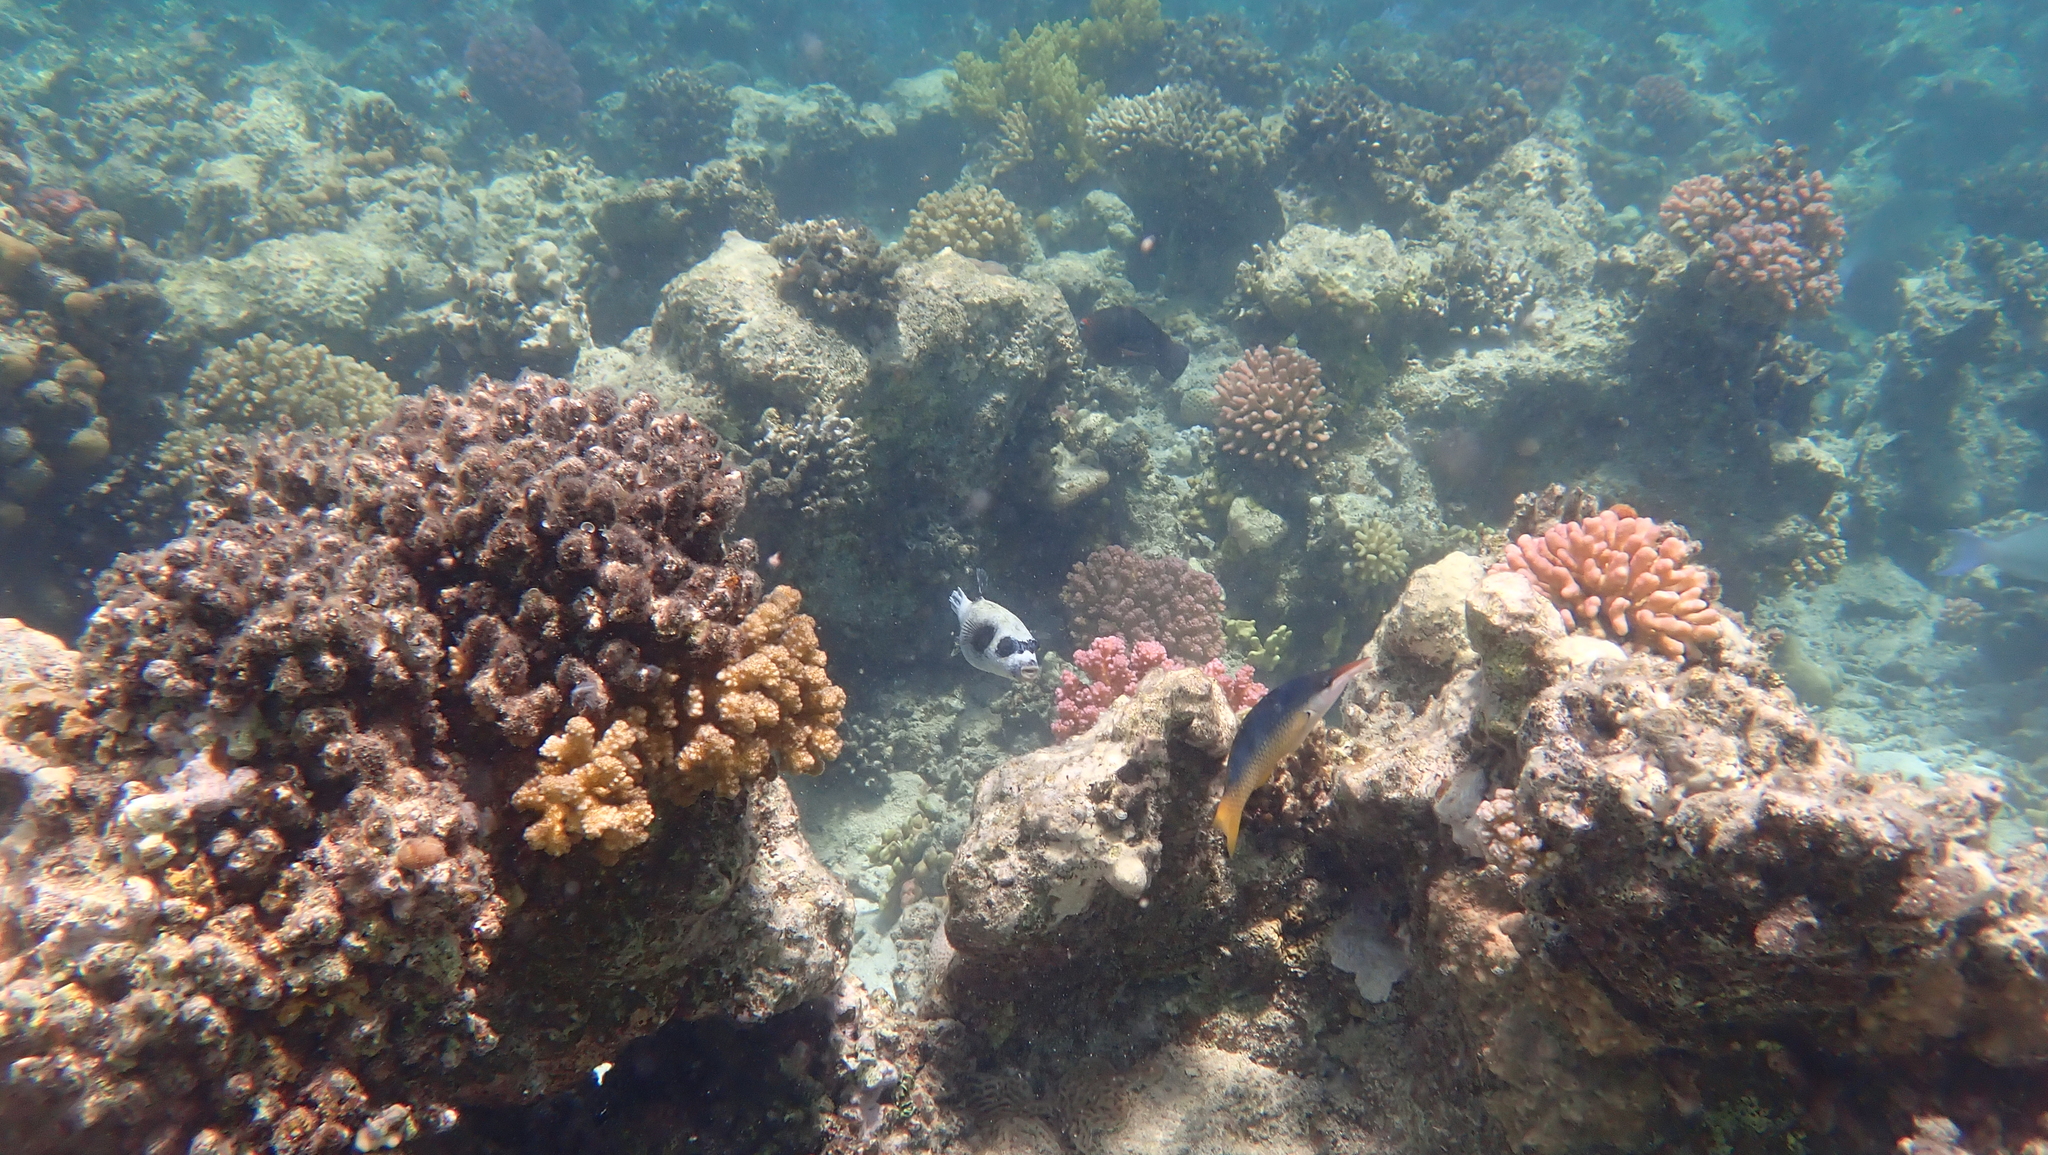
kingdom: Animalia
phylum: Chordata
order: Perciformes
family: Labridae
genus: Gomphosus
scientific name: Gomphosus klunzingeri
